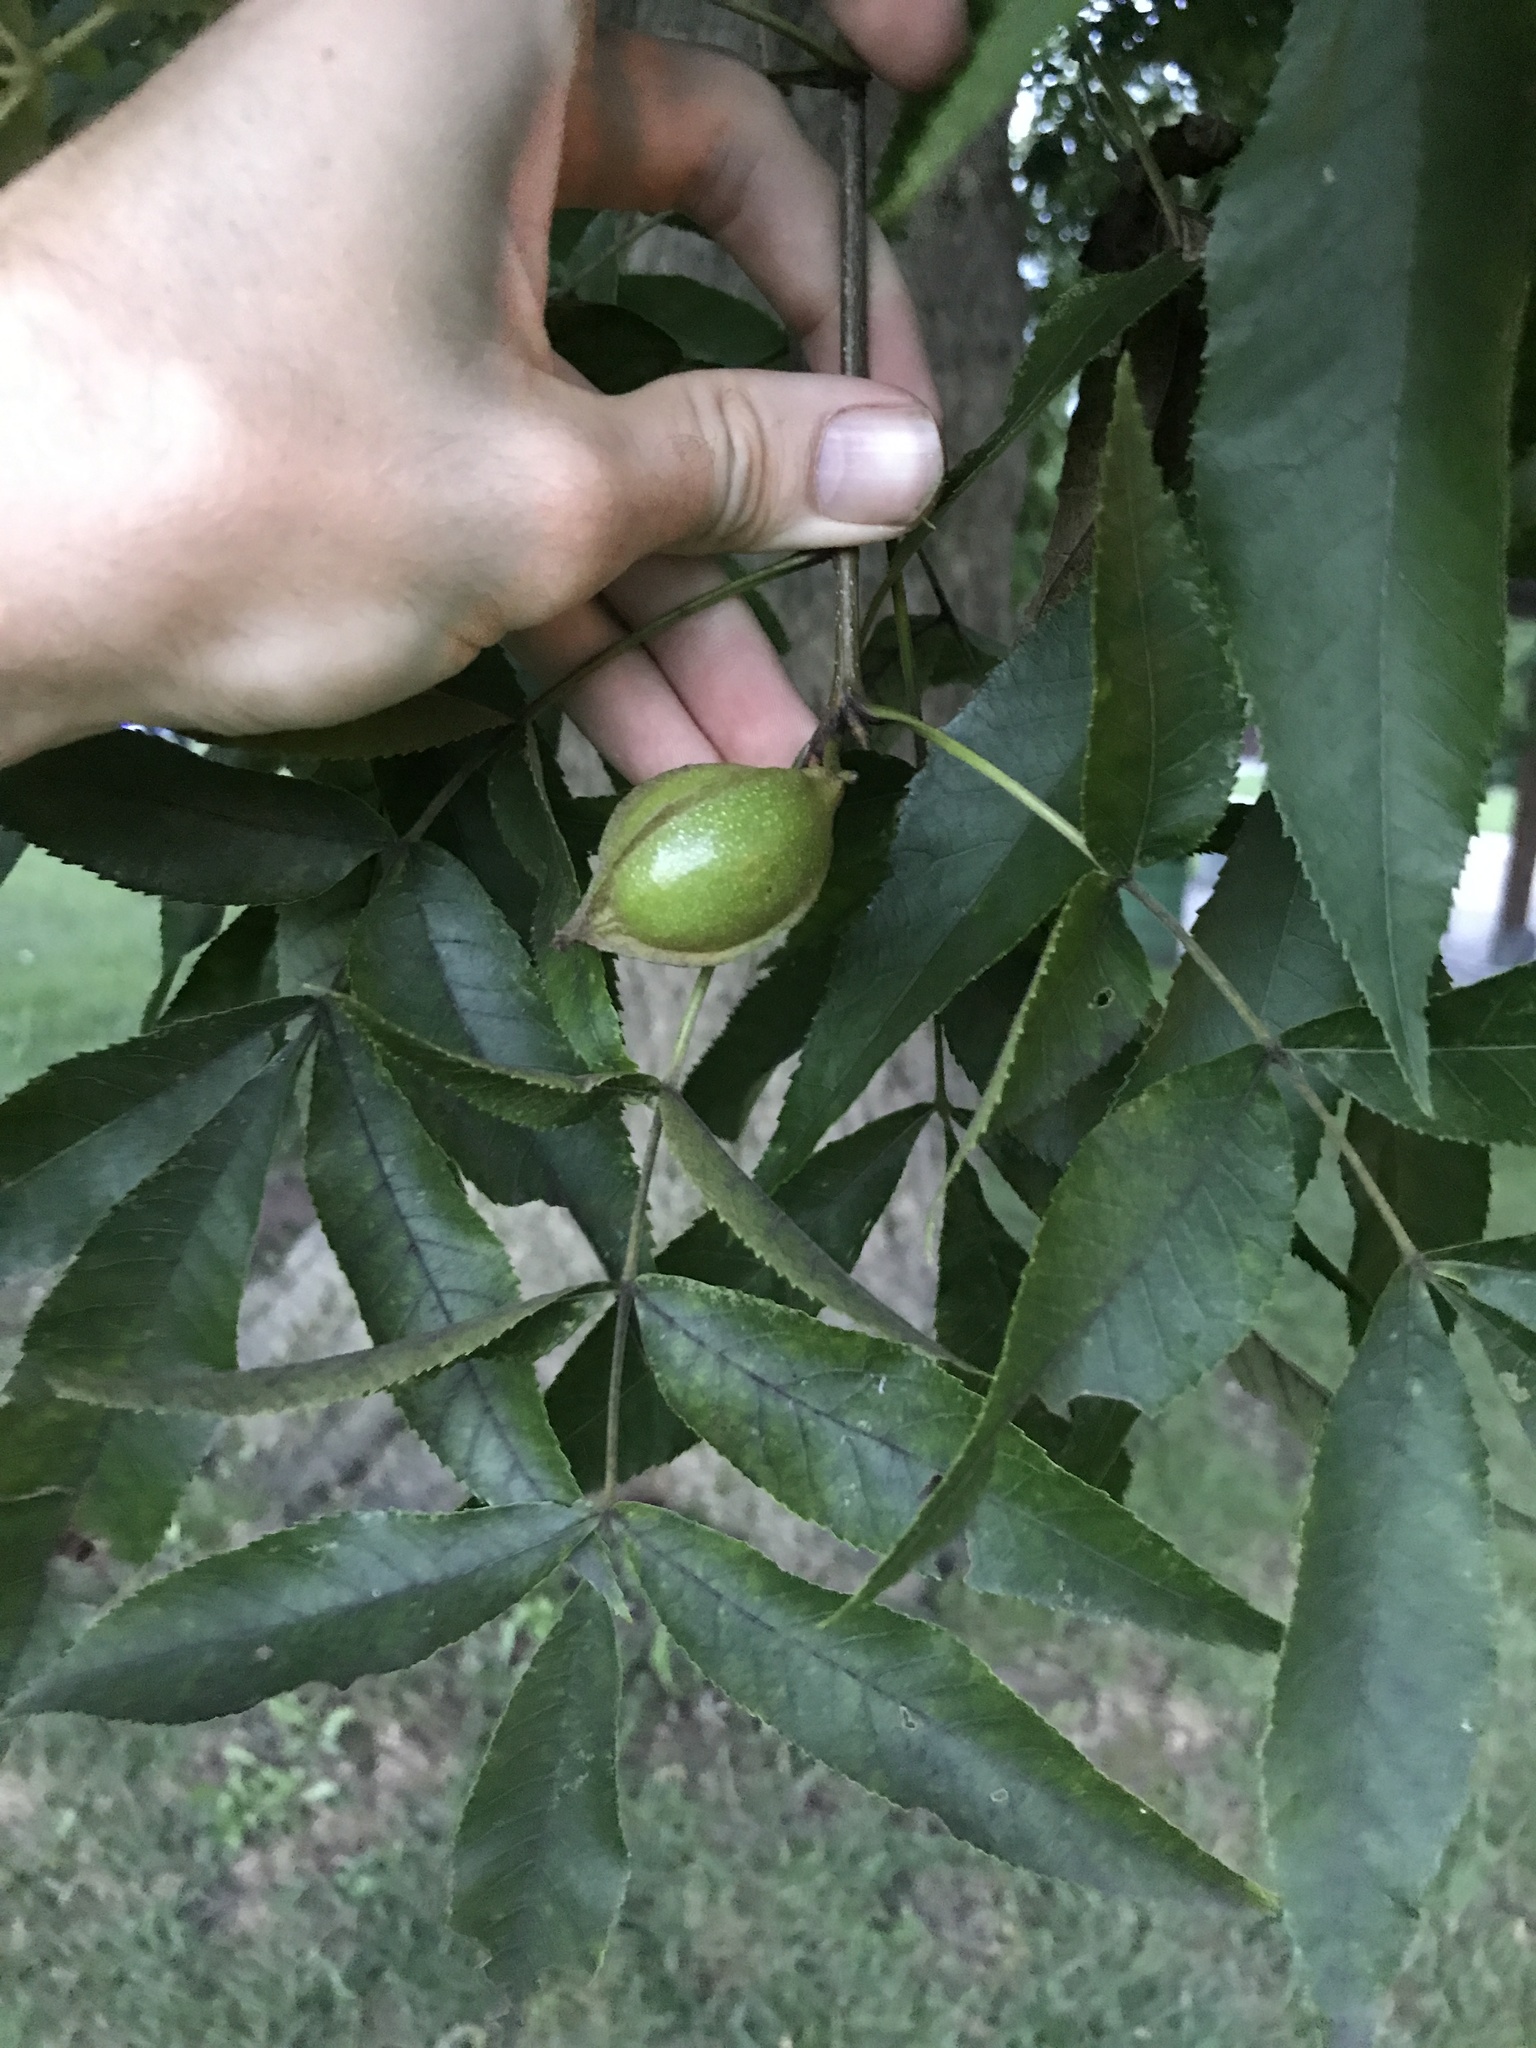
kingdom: Plantae
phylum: Tracheophyta
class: Magnoliopsida
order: Fagales
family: Juglandaceae
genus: Carya
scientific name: Carya cordiformis
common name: Bitternut hickory
